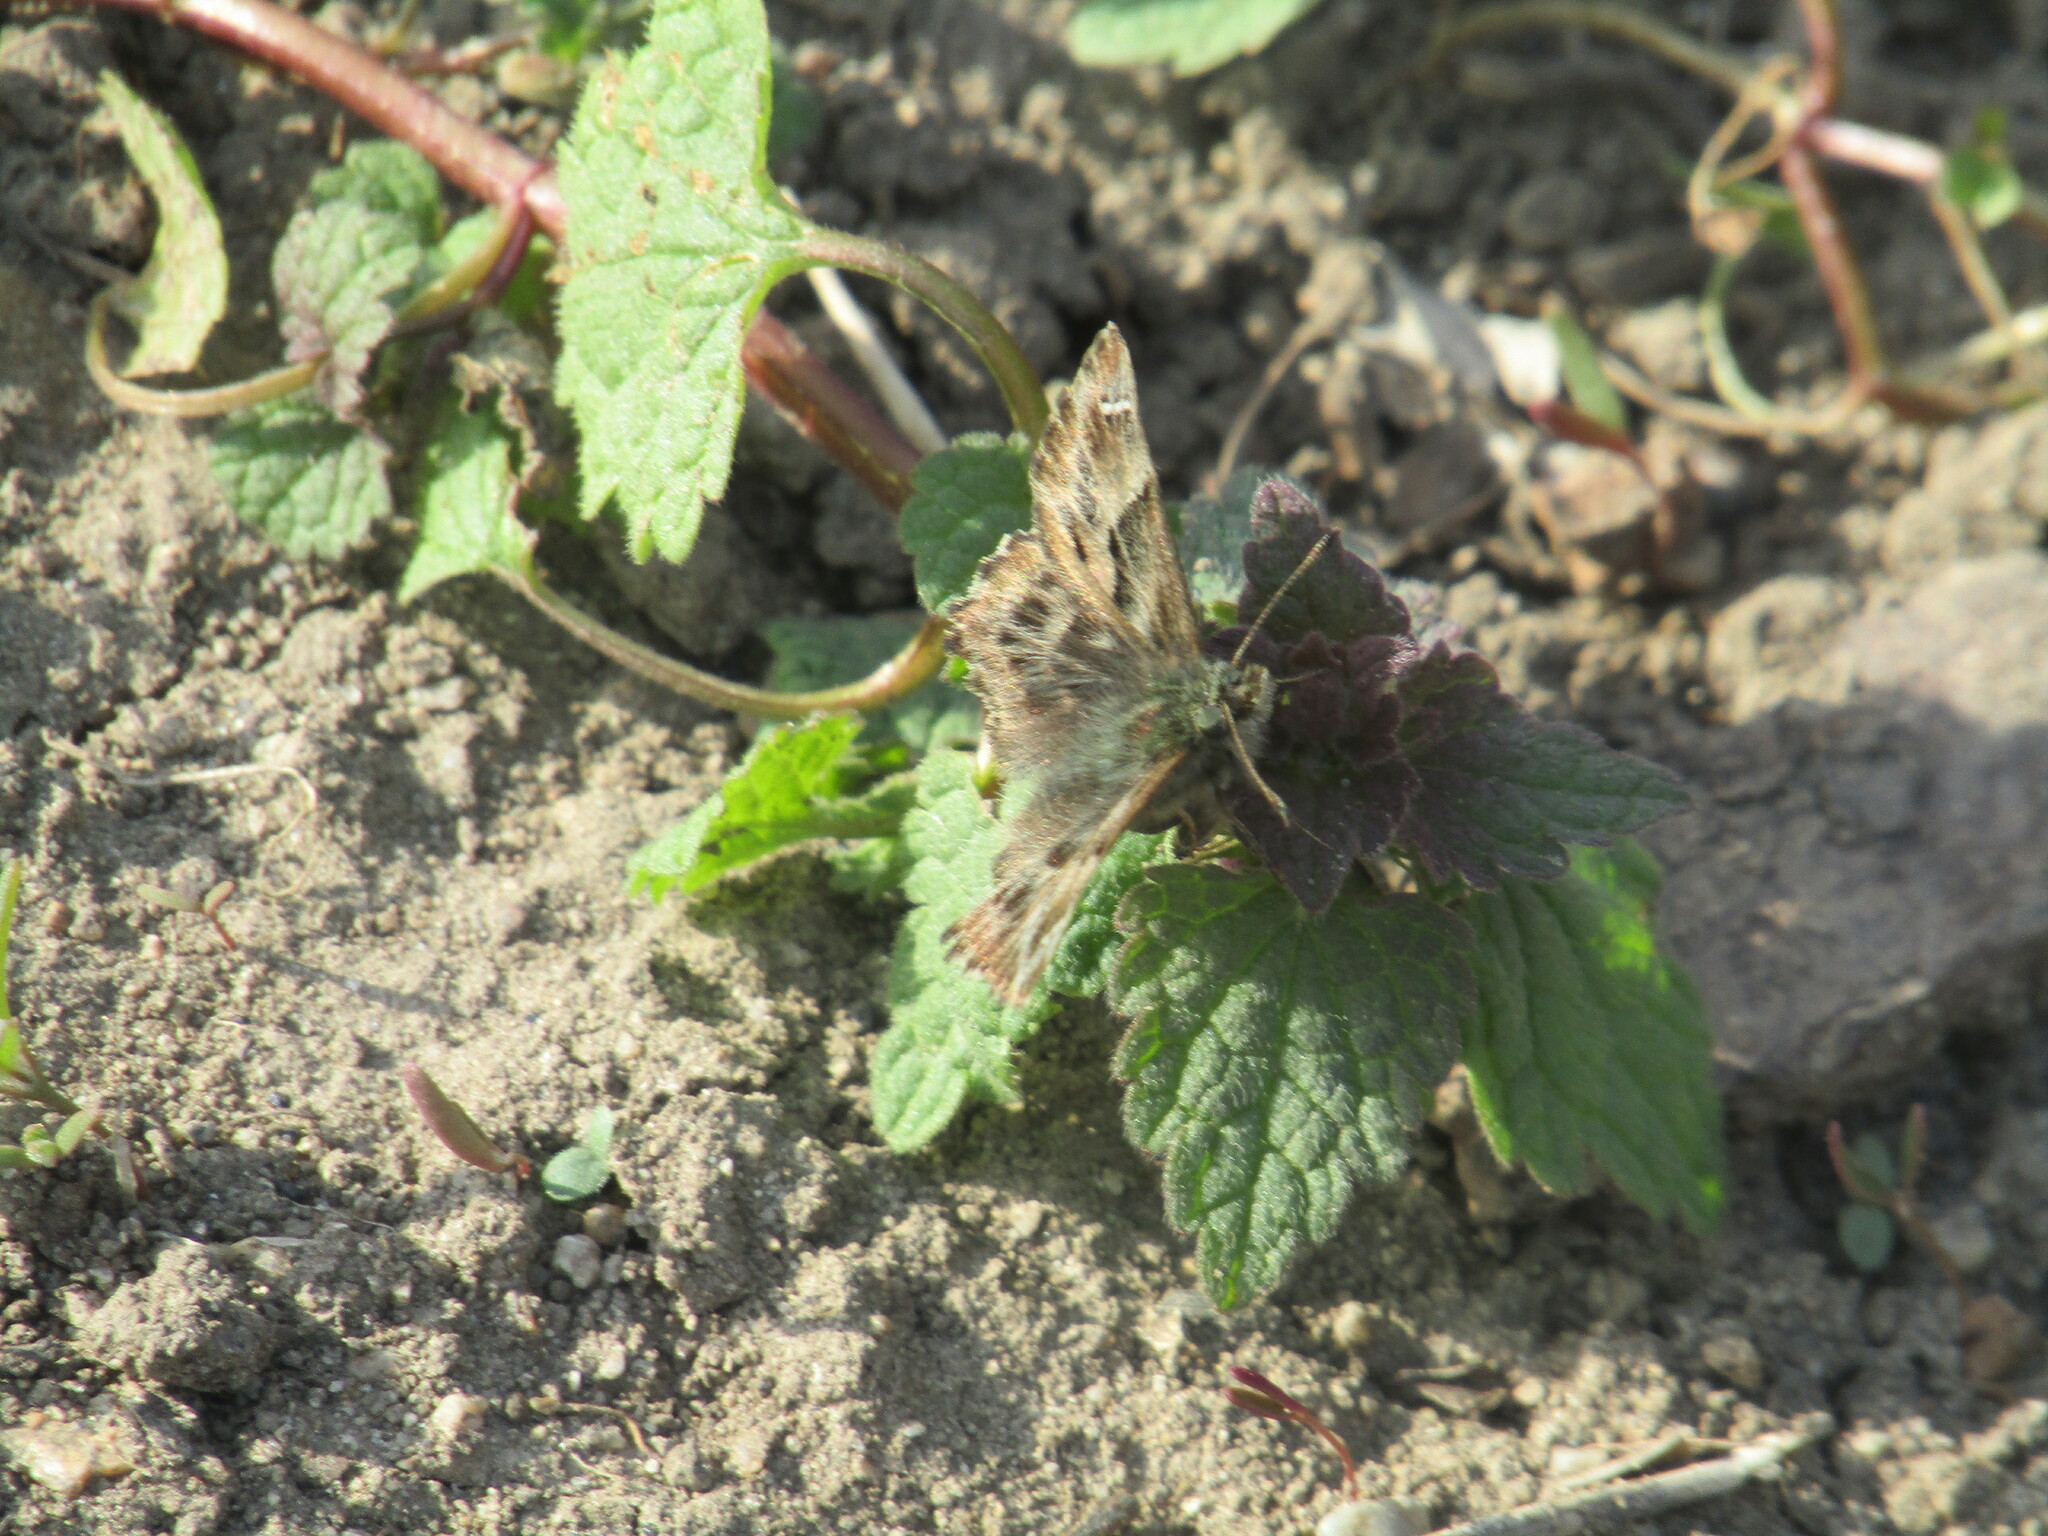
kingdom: Animalia
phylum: Arthropoda
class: Insecta
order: Lepidoptera
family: Hesperiidae
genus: Carcharodus
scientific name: Carcharodus alceae
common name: Mallow skipper
